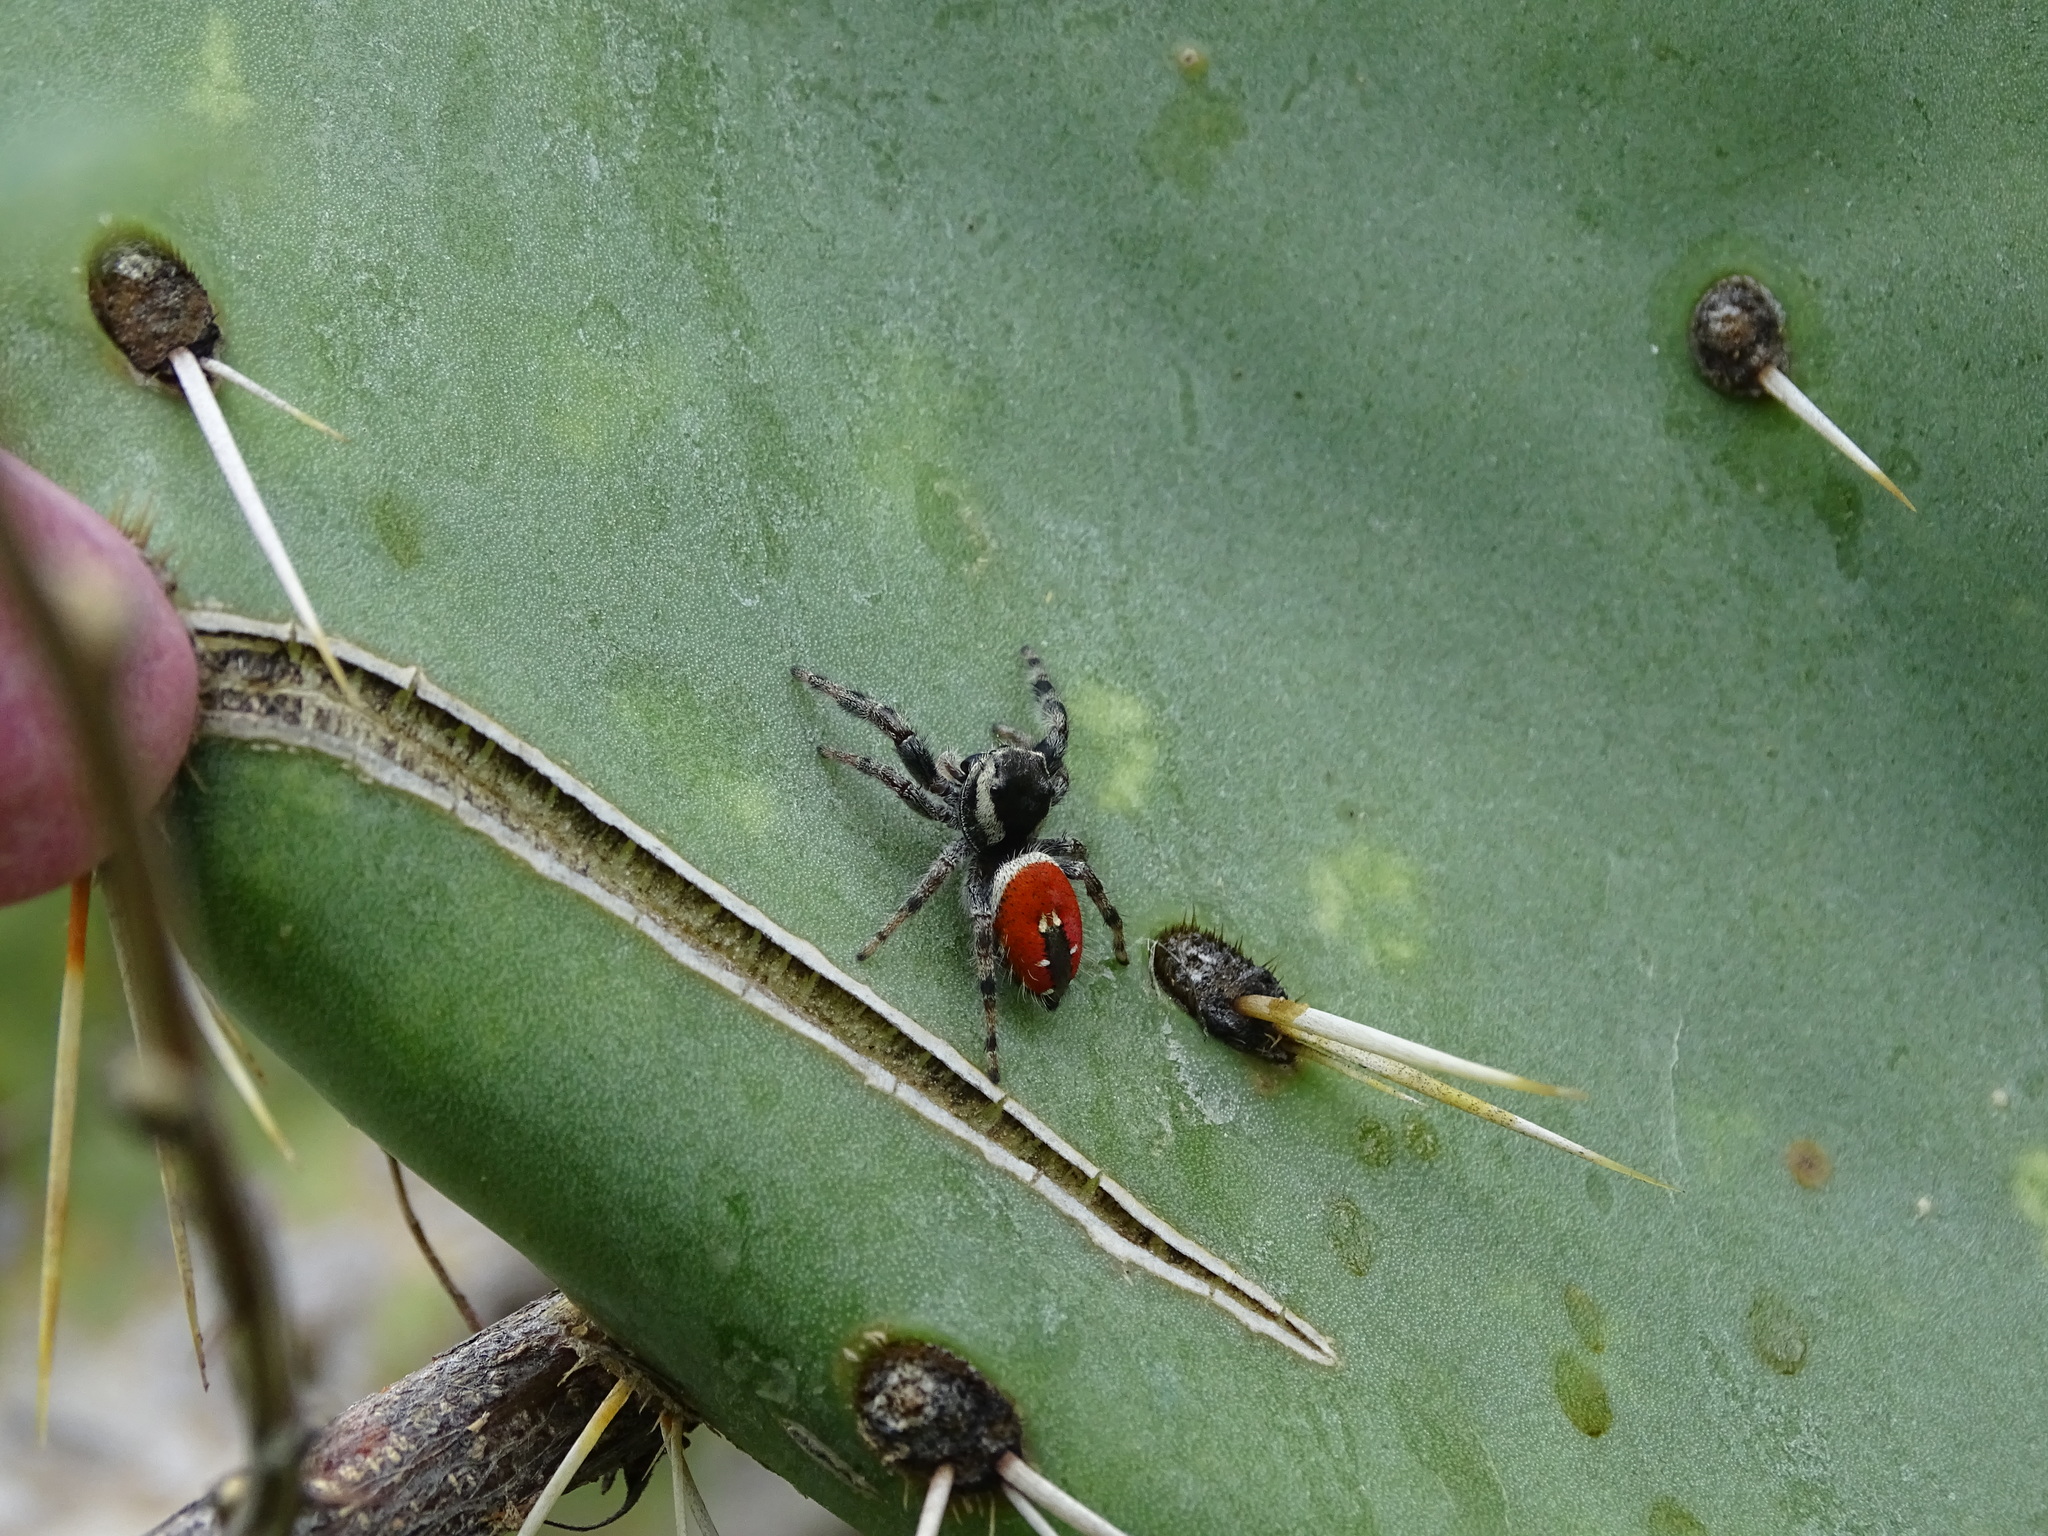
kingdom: Animalia
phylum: Arthropoda
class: Arachnida
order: Araneae
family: Salticidae
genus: Phidippus
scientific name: Phidippus carneus
